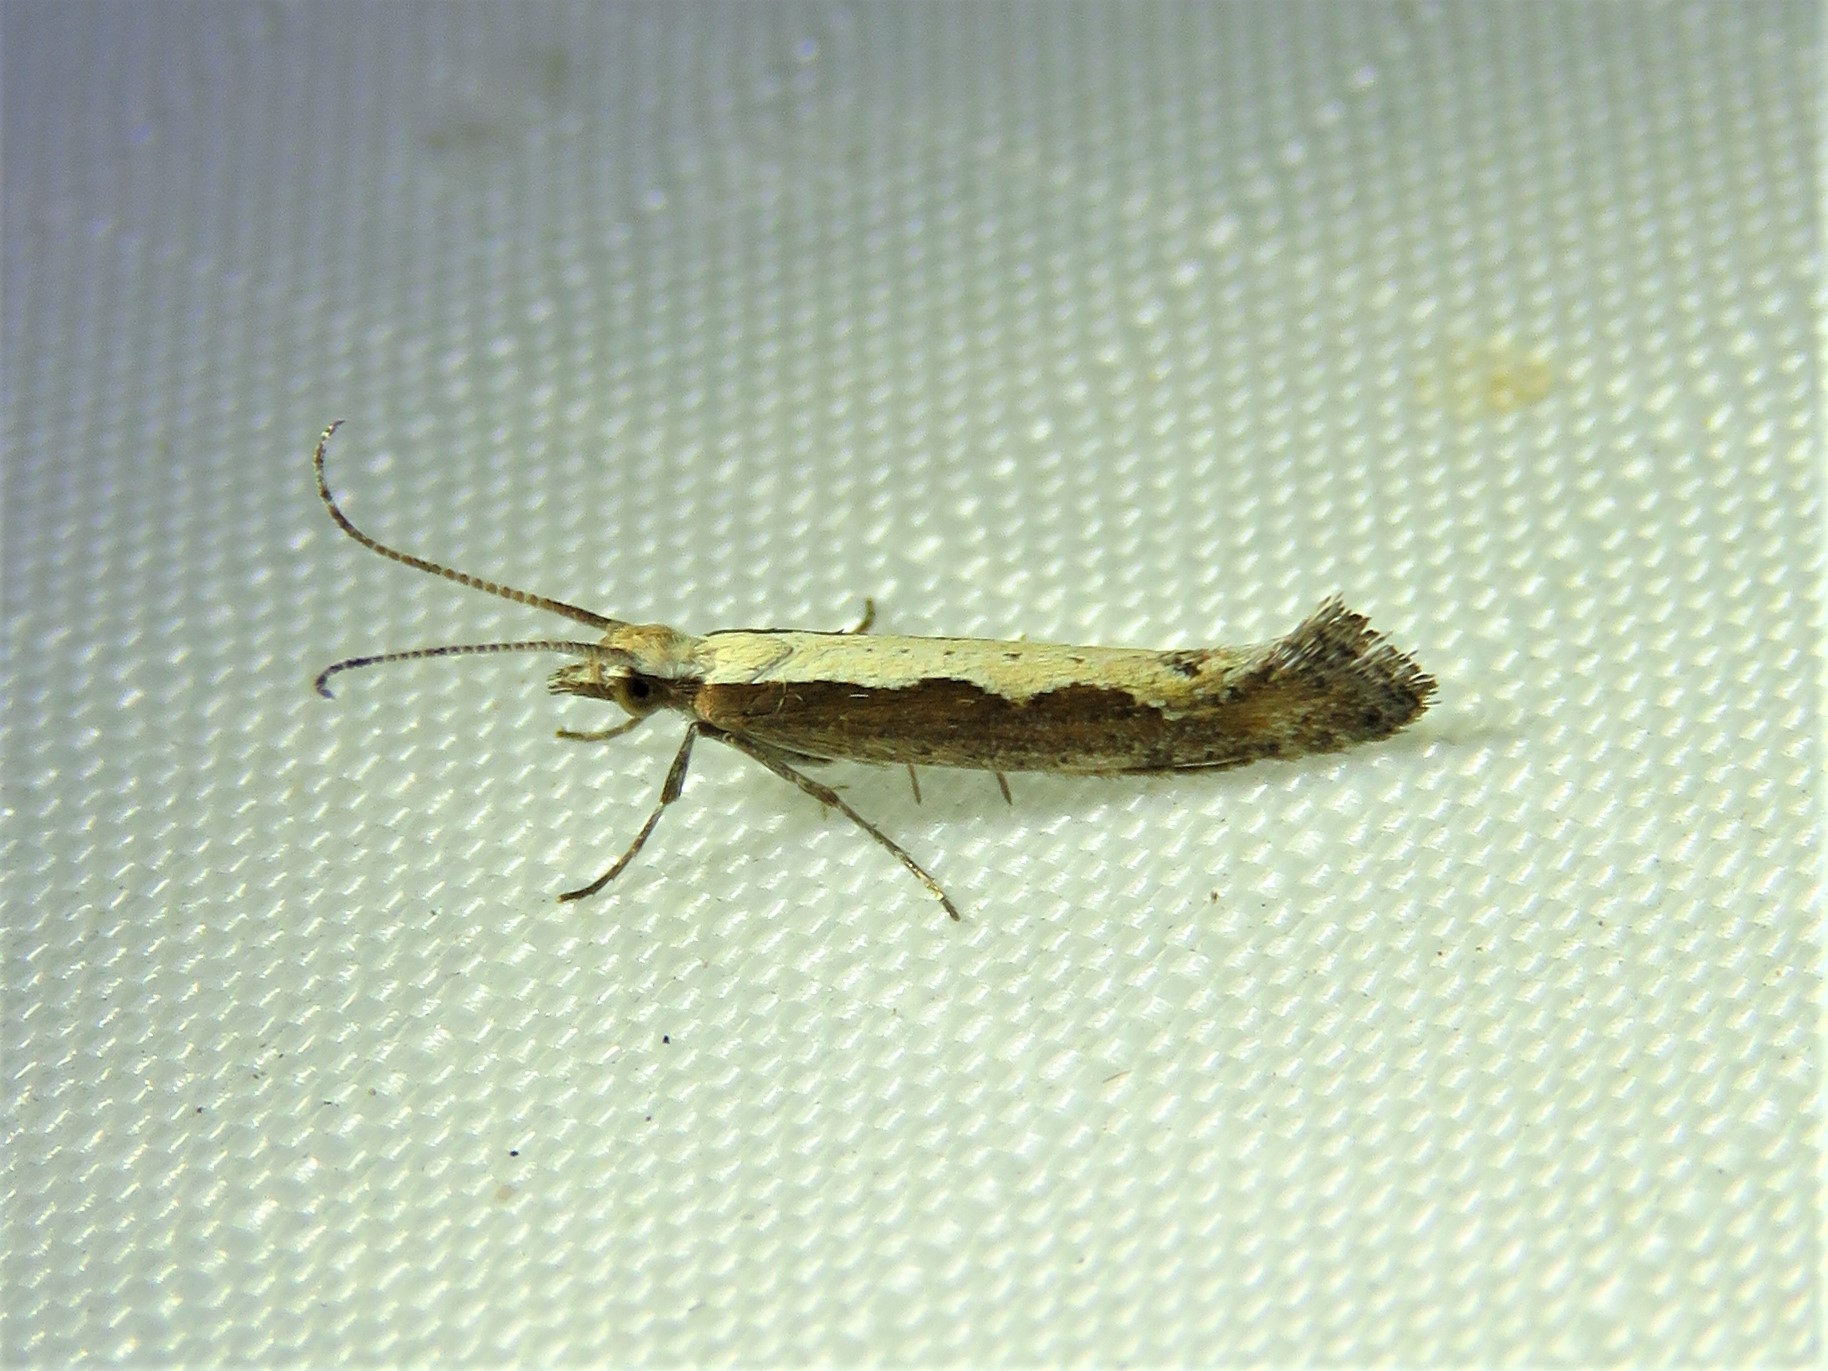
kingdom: Animalia
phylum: Arthropoda
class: Insecta
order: Lepidoptera
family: Plutellidae
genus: Plutella
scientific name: Plutella xylostella
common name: Diamond-back moth
